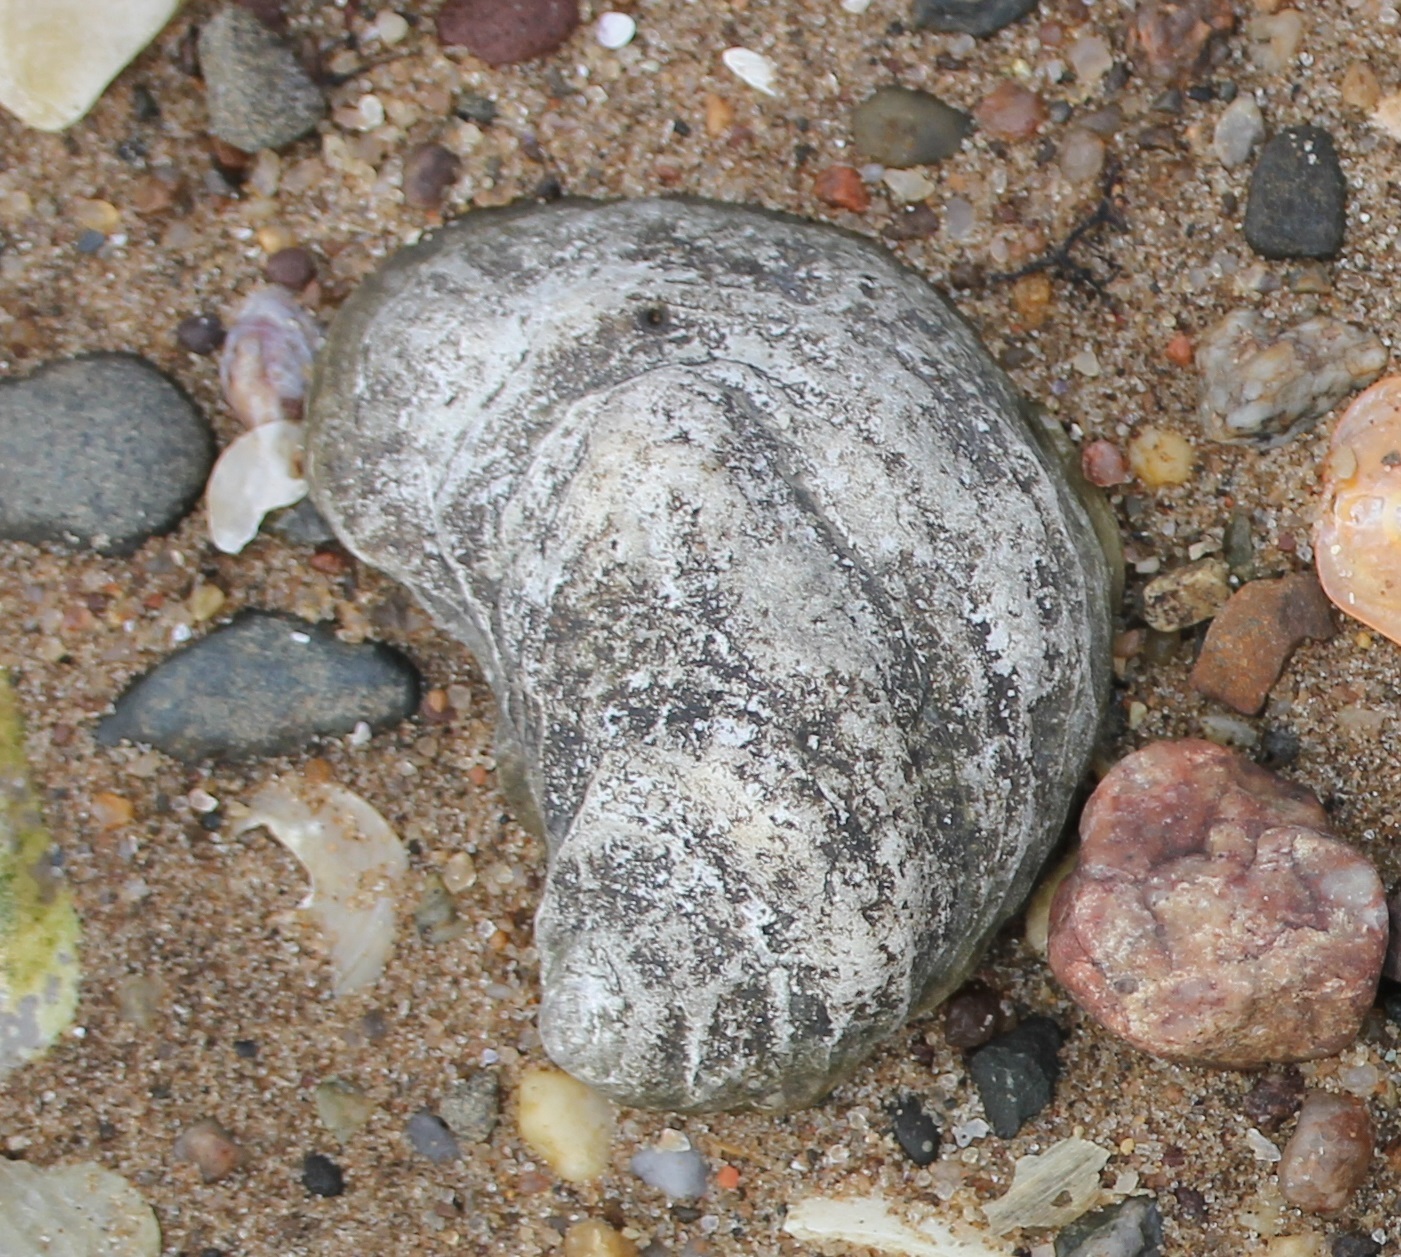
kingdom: Animalia
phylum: Mollusca
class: Bivalvia
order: Ostreida
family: Ostreidae
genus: Crassostrea
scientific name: Crassostrea virginica
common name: American oyster
